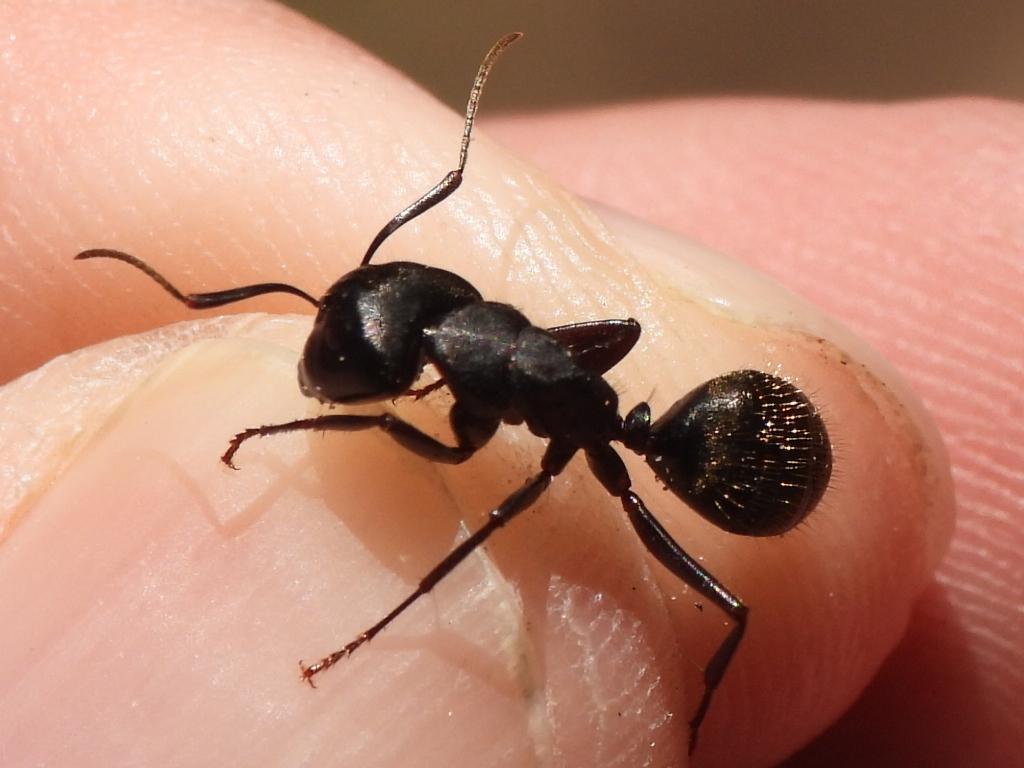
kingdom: Animalia
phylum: Arthropoda
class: Insecta
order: Hymenoptera
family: Formicidae
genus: Camponotus
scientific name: Camponotus pennsylvanicus
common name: Black carpenter ant
